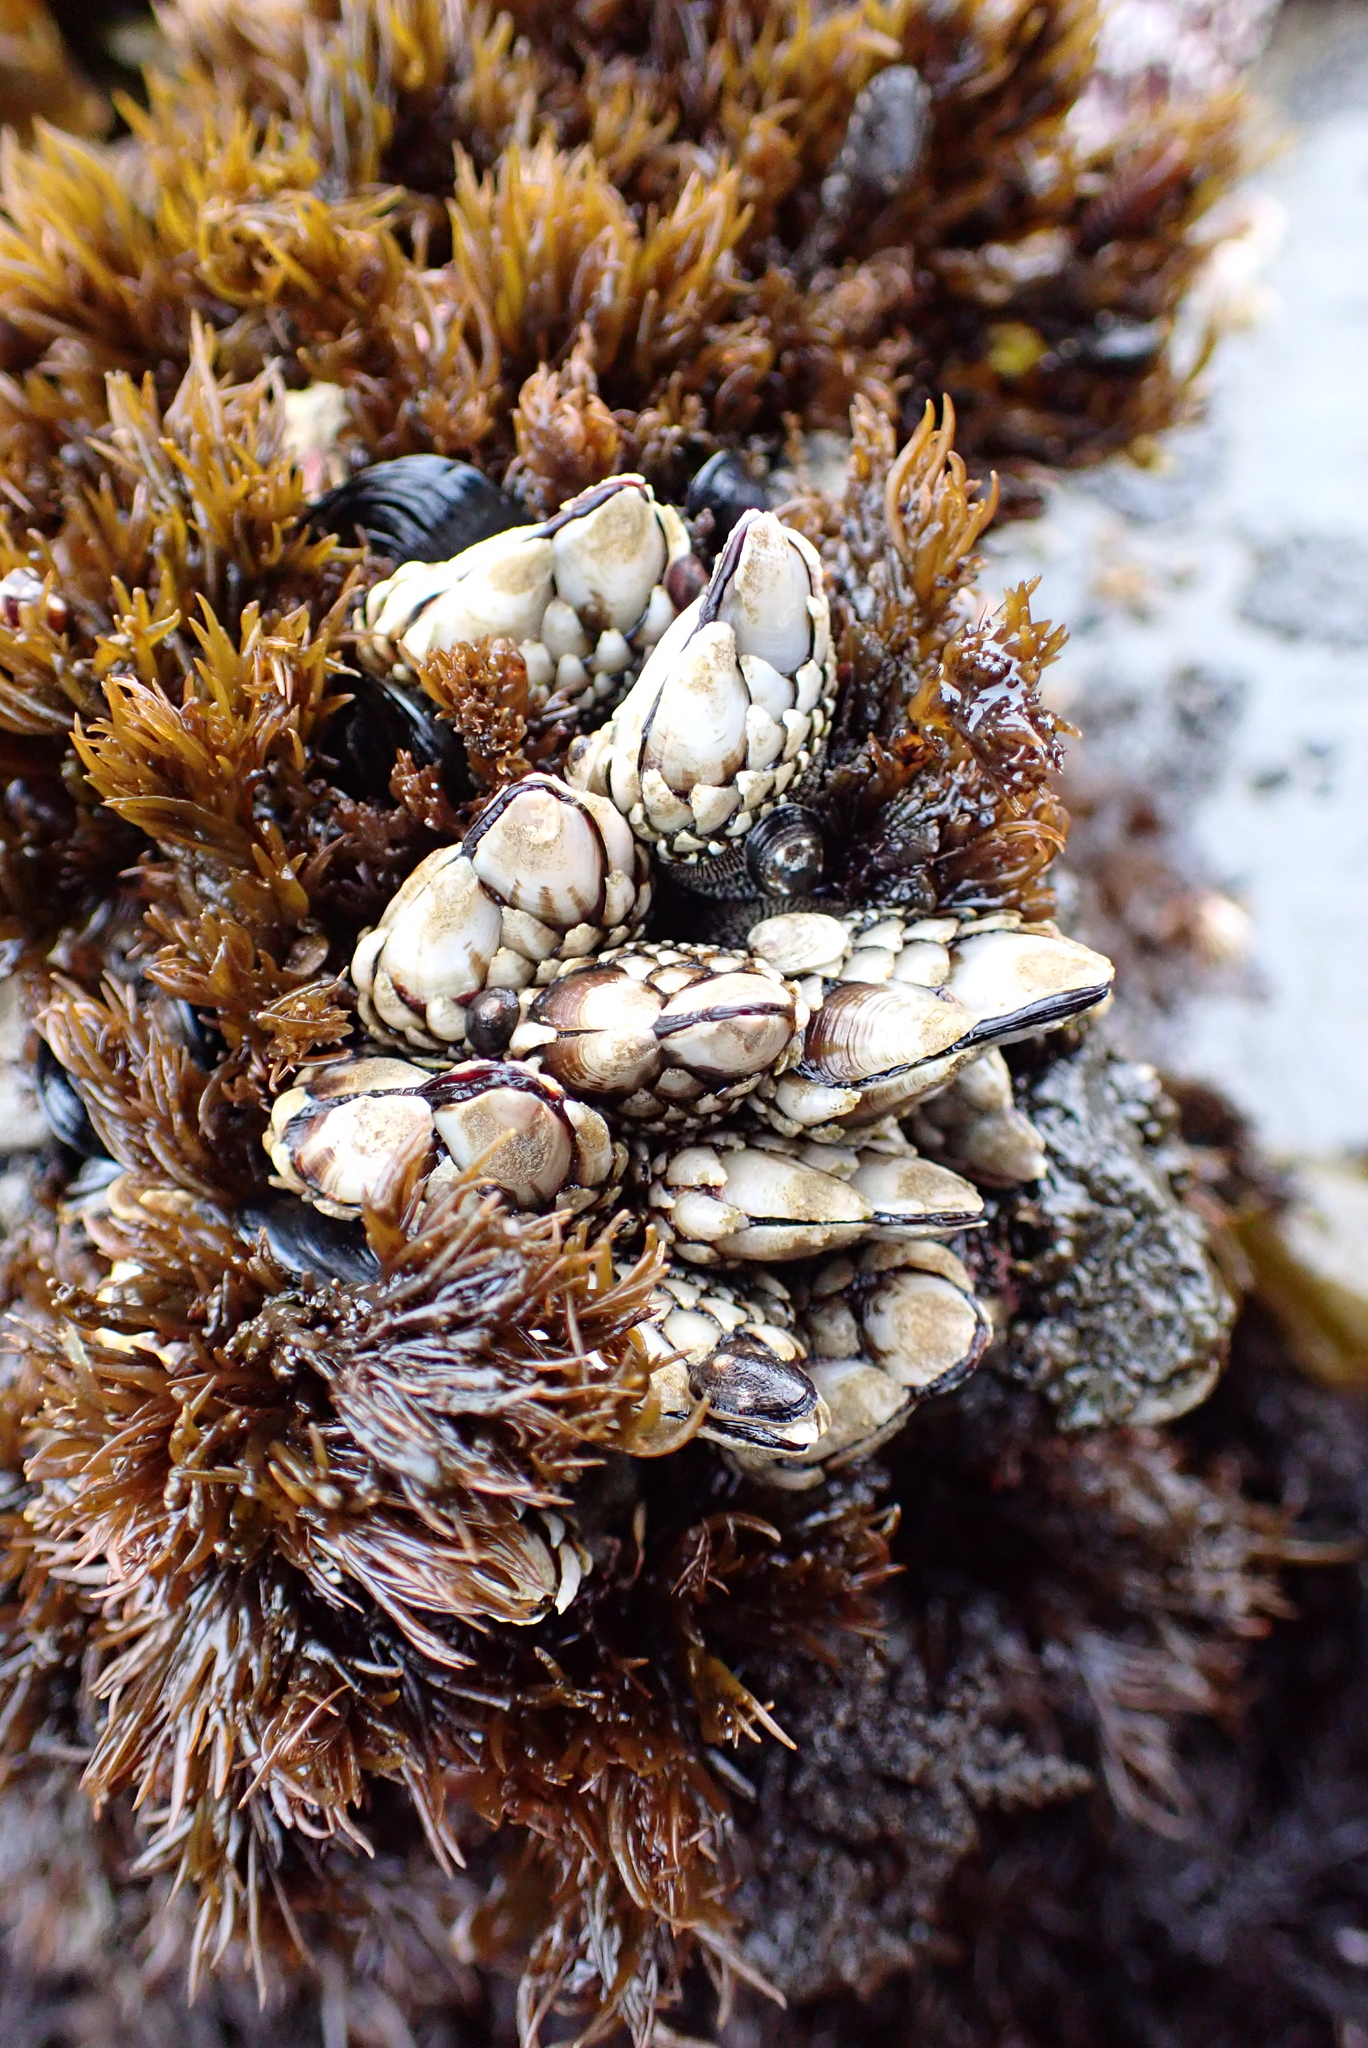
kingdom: Animalia
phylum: Arthropoda
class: Maxillopoda
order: Pedunculata
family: Pollicipedidae
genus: Pollicipes
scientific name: Pollicipes polymerus
